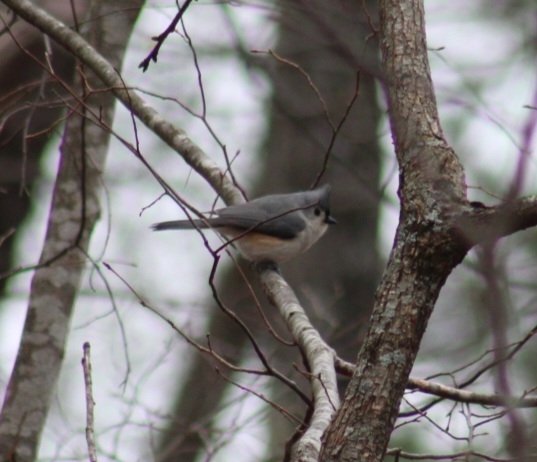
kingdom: Animalia
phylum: Chordata
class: Aves
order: Passeriformes
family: Paridae
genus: Baeolophus
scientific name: Baeolophus bicolor
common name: Tufted titmouse
